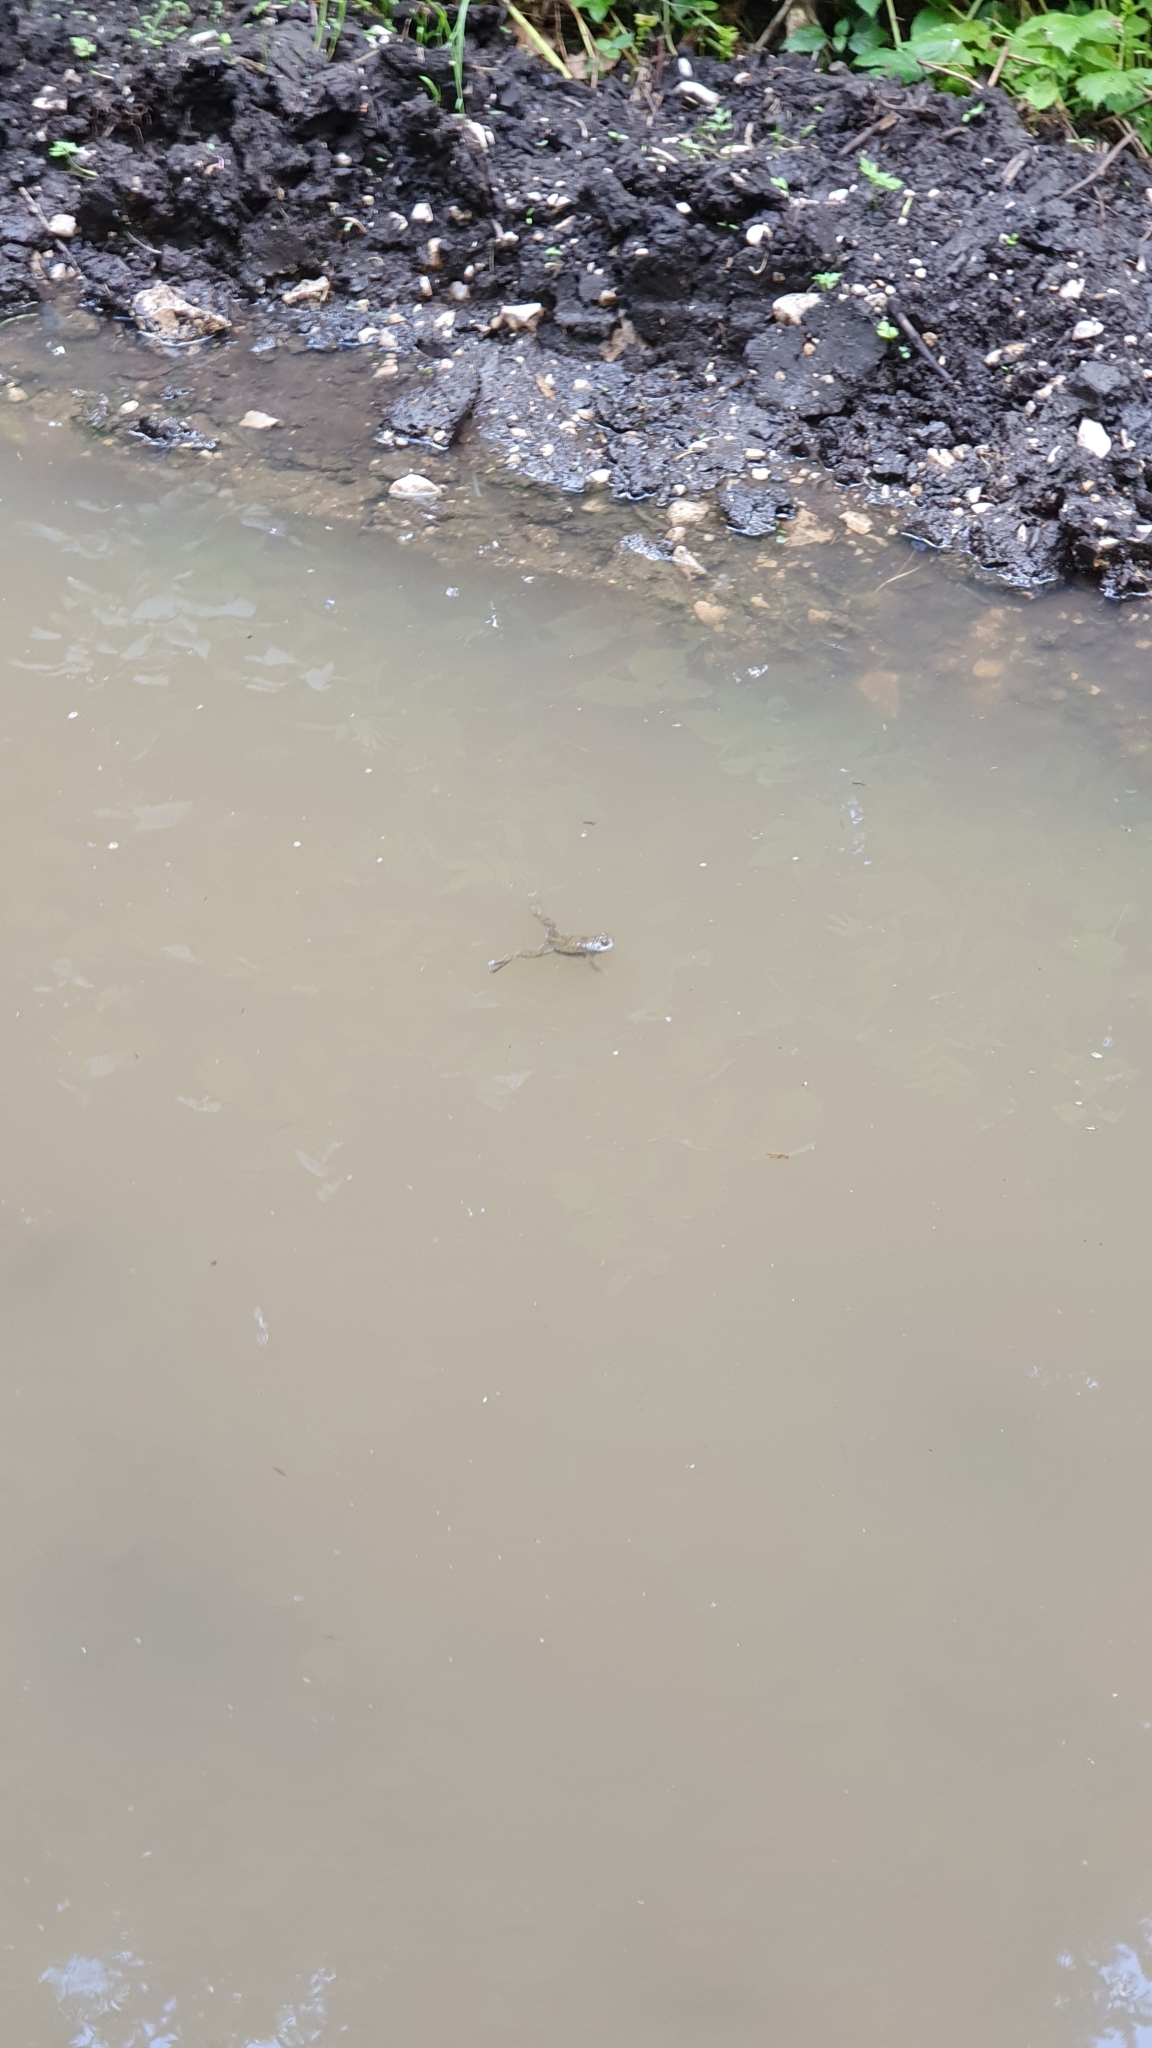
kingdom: Animalia
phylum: Chordata
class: Amphibia
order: Anura
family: Bombinatoridae
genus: Bombina
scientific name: Bombina variegata
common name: Yellow-bellied toad
